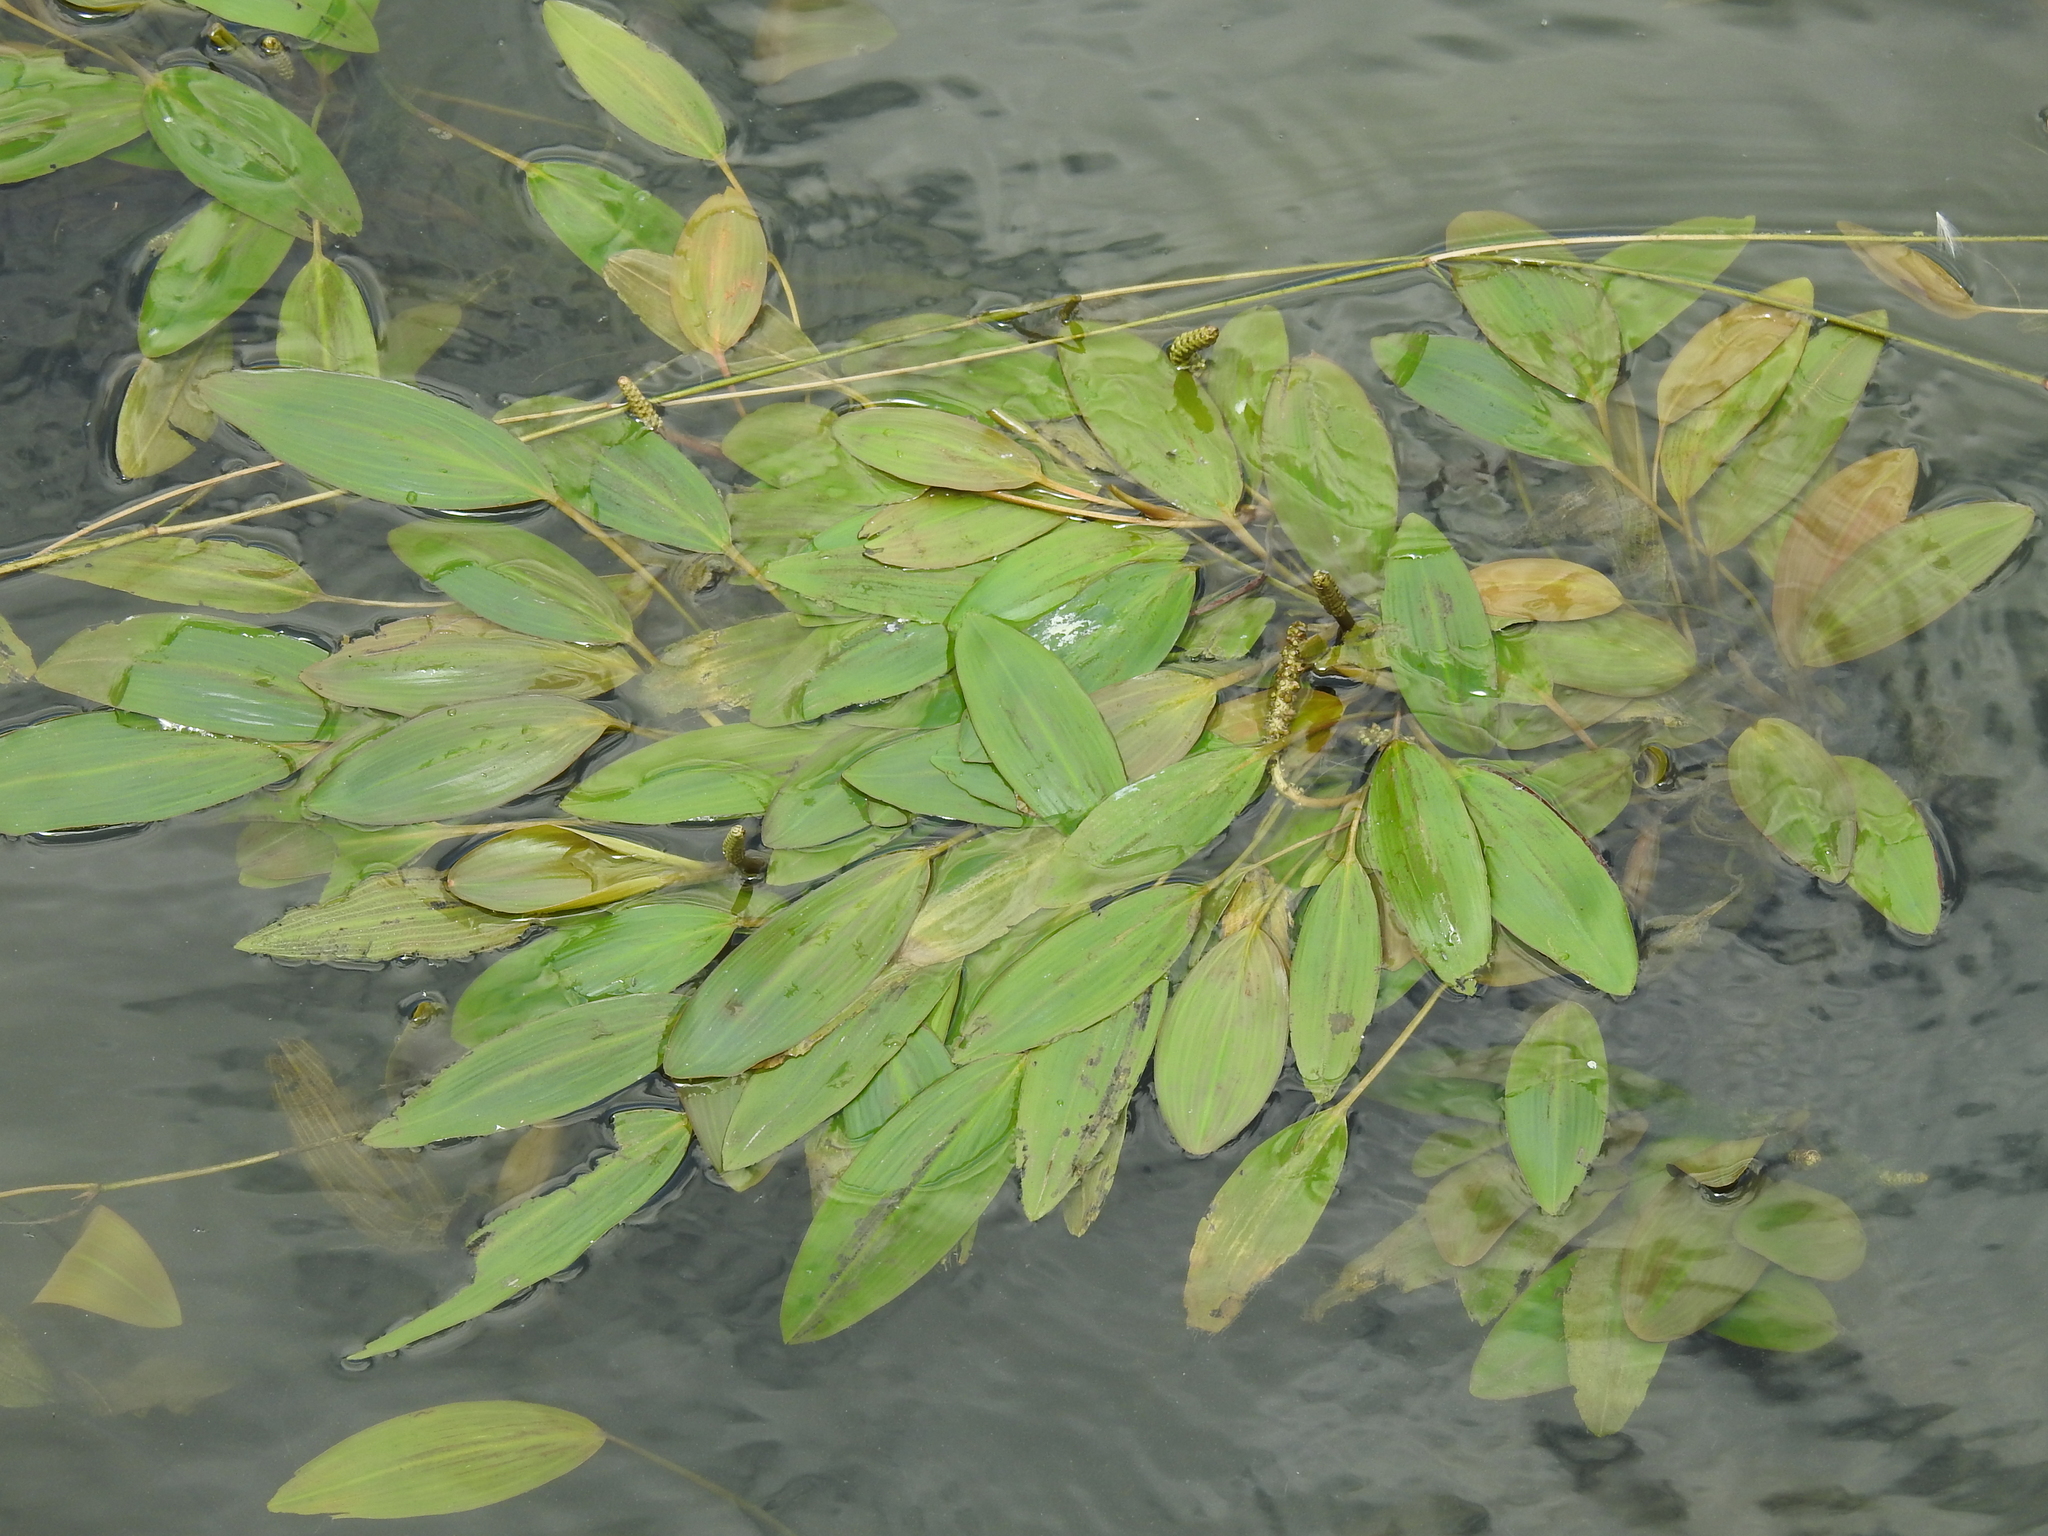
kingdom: Plantae
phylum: Tracheophyta
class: Liliopsida
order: Alismatales
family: Potamogetonaceae
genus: Potamogeton
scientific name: Potamogeton nodosus
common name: Loddon pondweed
